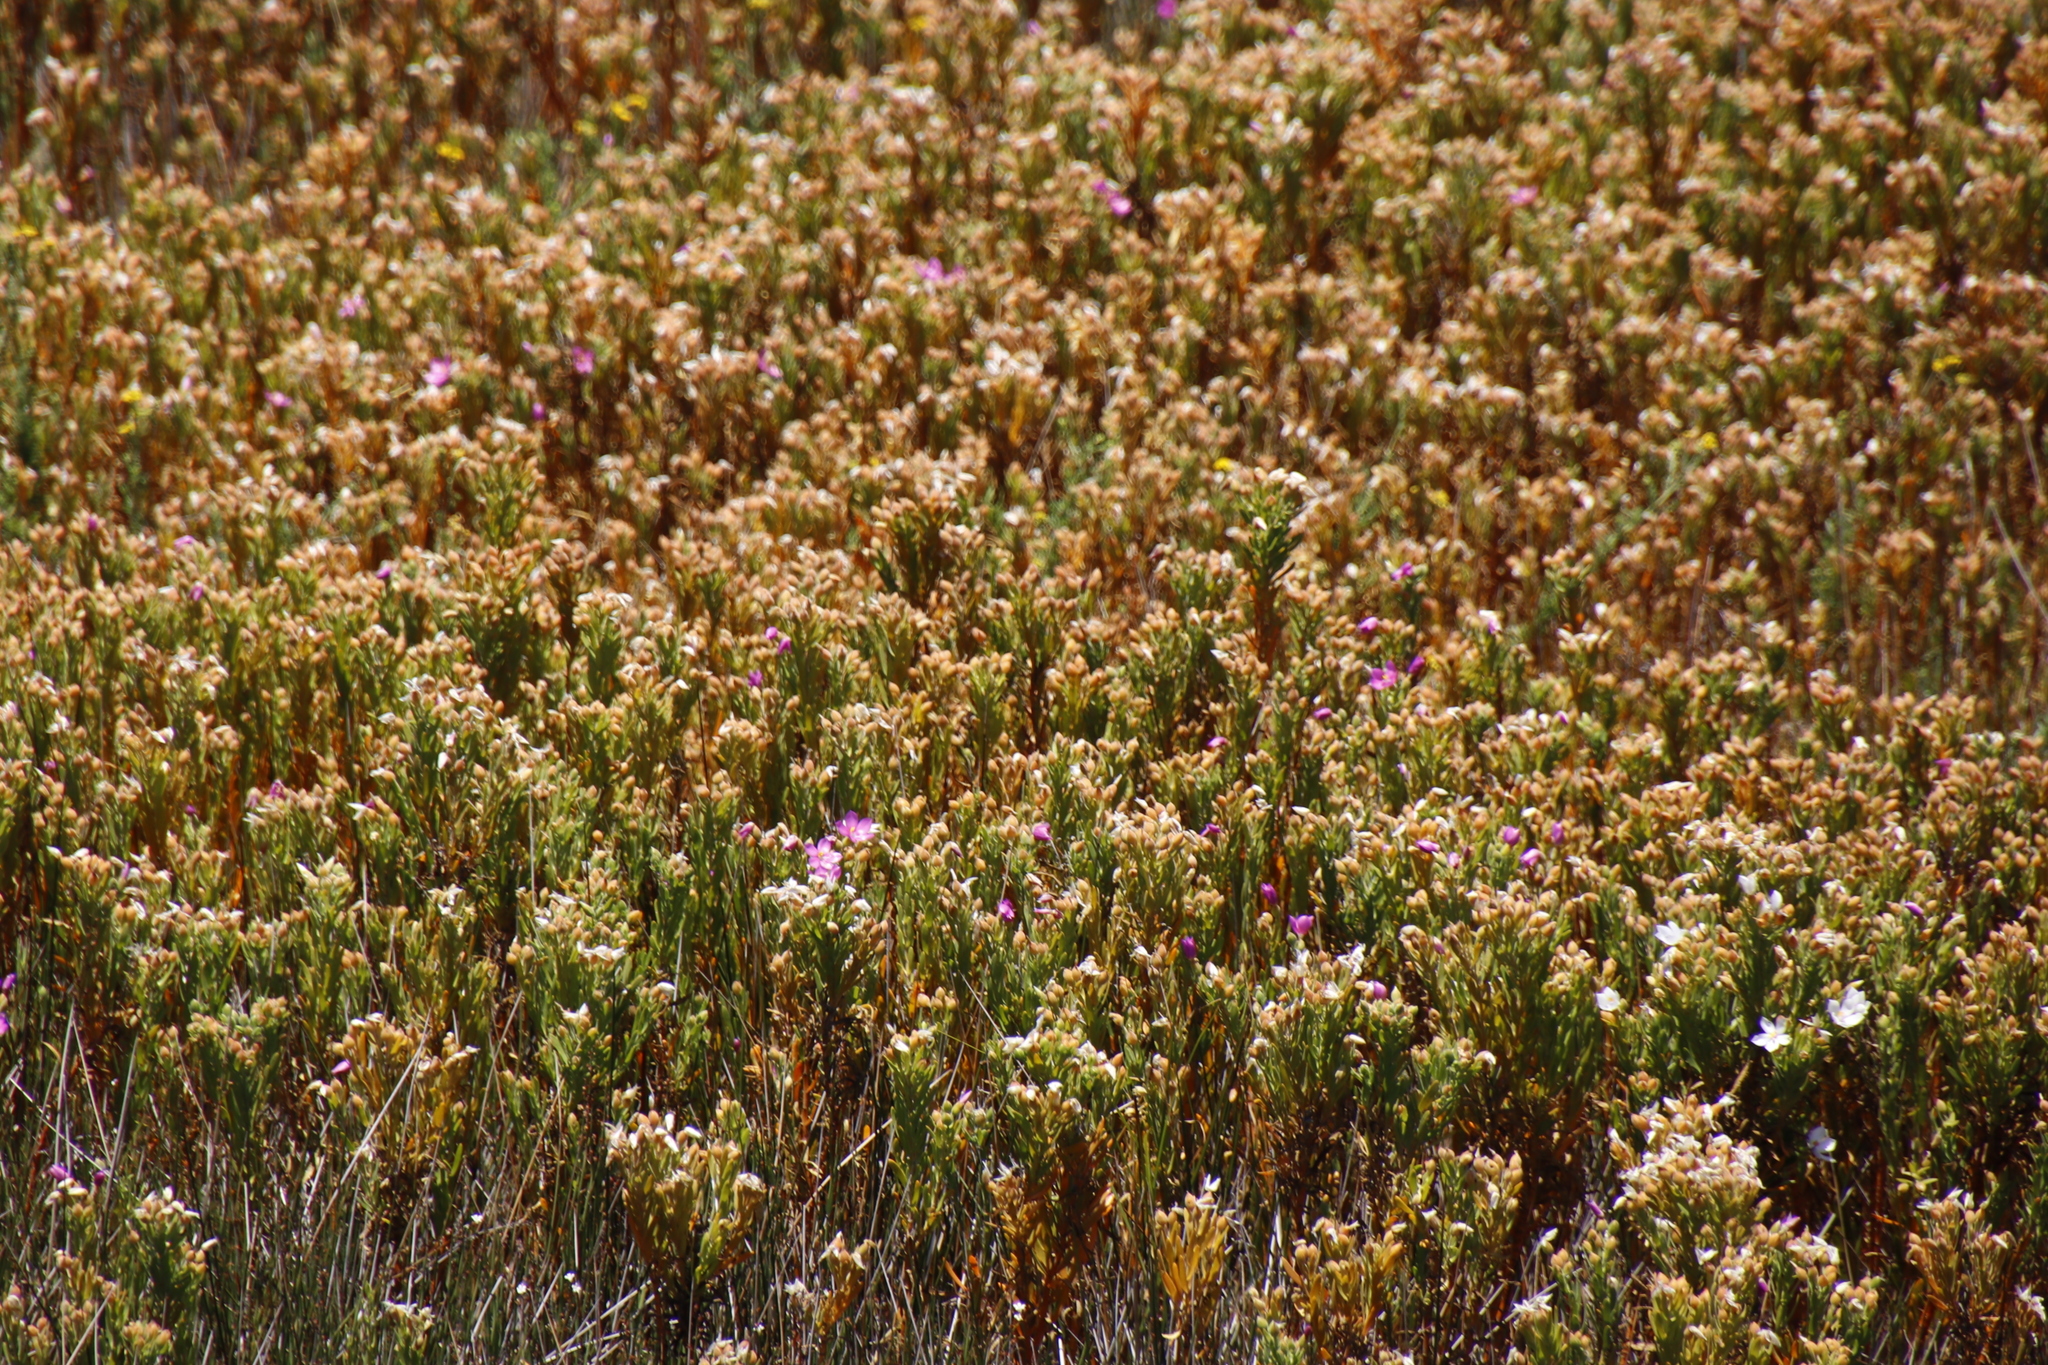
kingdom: Plantae
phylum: Tracheophyta
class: Magnoliopsida
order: Gentianales
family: Gentianaceae
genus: Orphium
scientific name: Orphium frutescens
